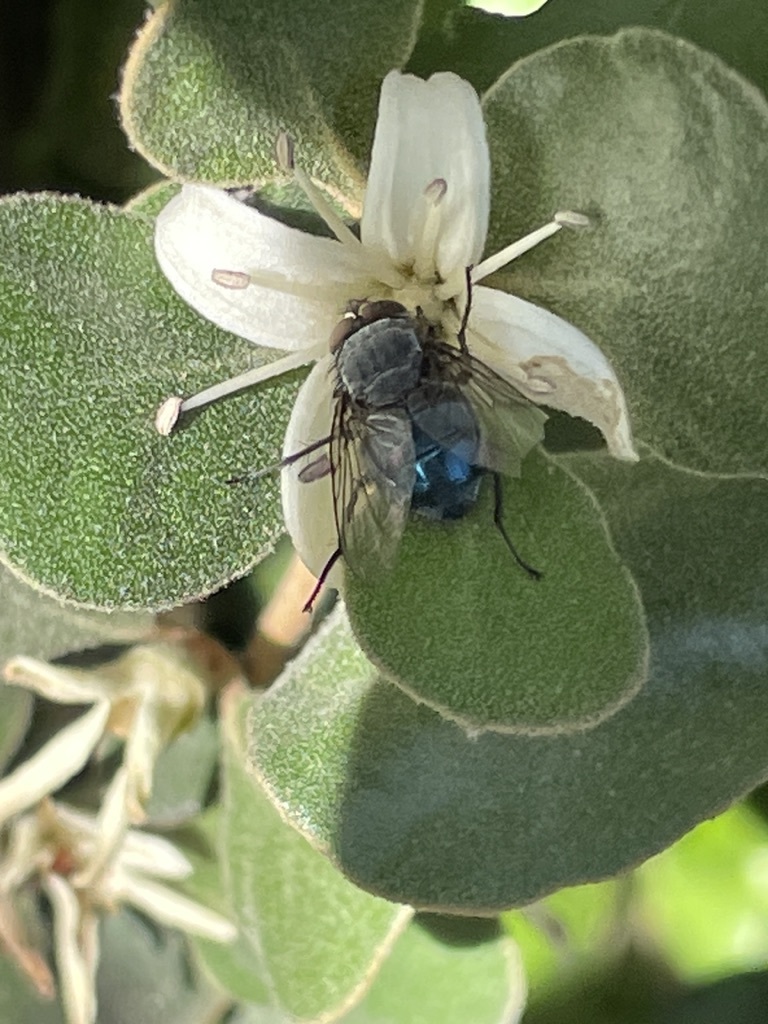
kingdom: Animalia
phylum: Arthropoda
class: Insecta
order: Diptera
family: Calliphoridae
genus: Calliphora
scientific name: Calliphora vicina
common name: Common blow flie
